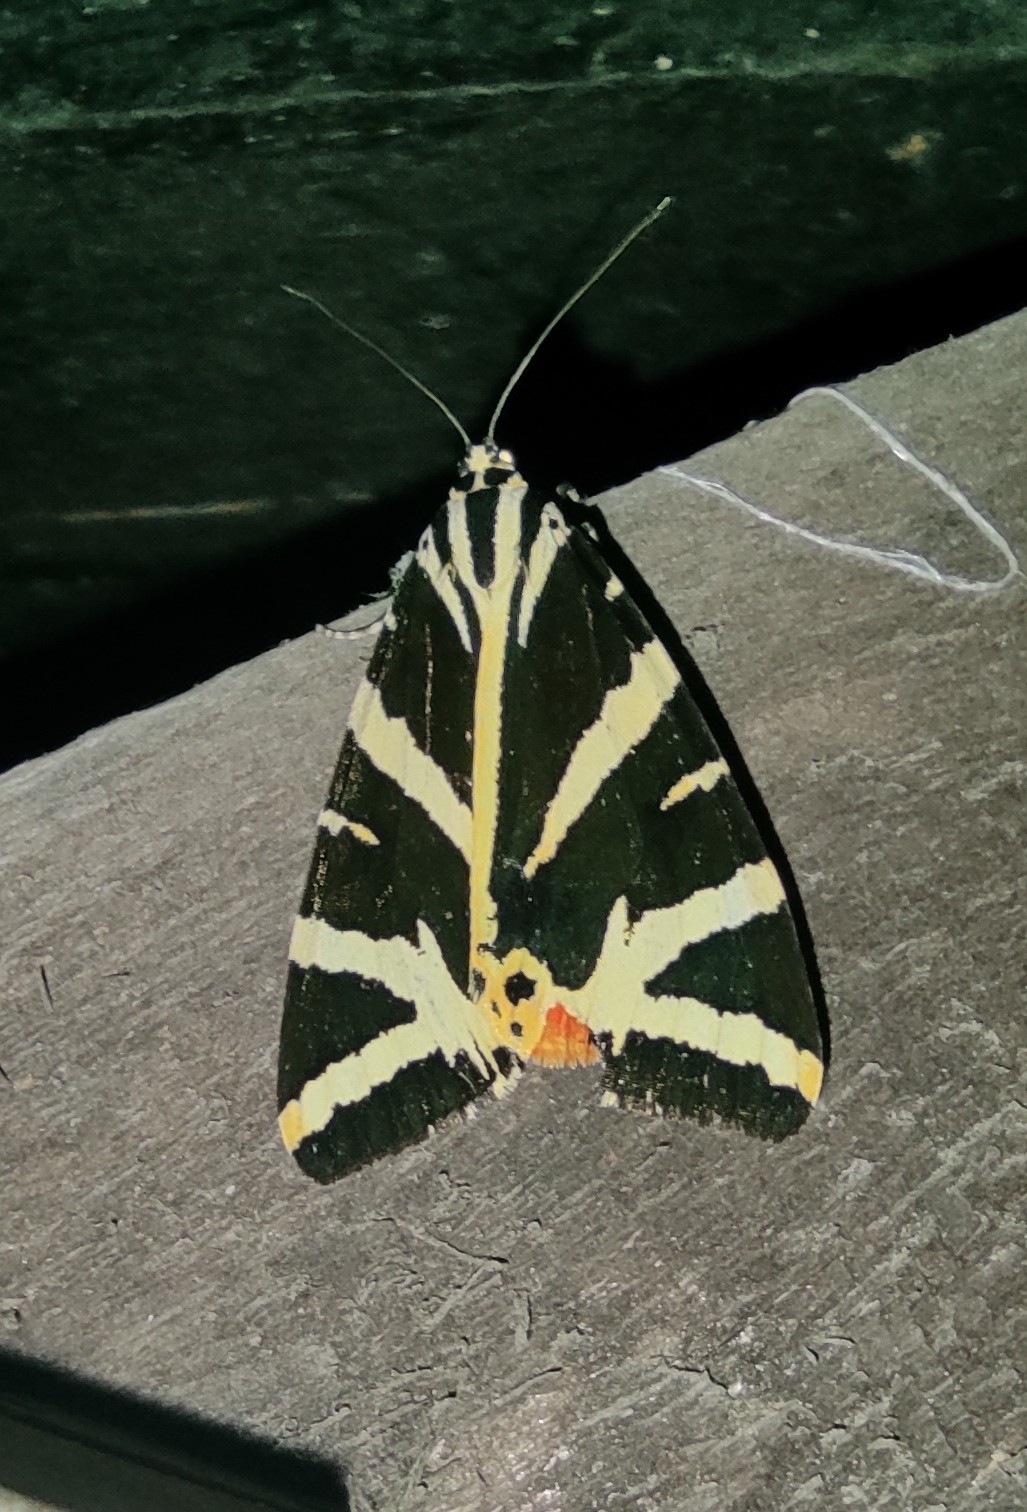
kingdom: Animalia
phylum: Arthropoda
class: Insecta
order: Lepidoptera
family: Erebidae
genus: Euplagia
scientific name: Euplagia quadripunctaria
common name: Jersey tiger
